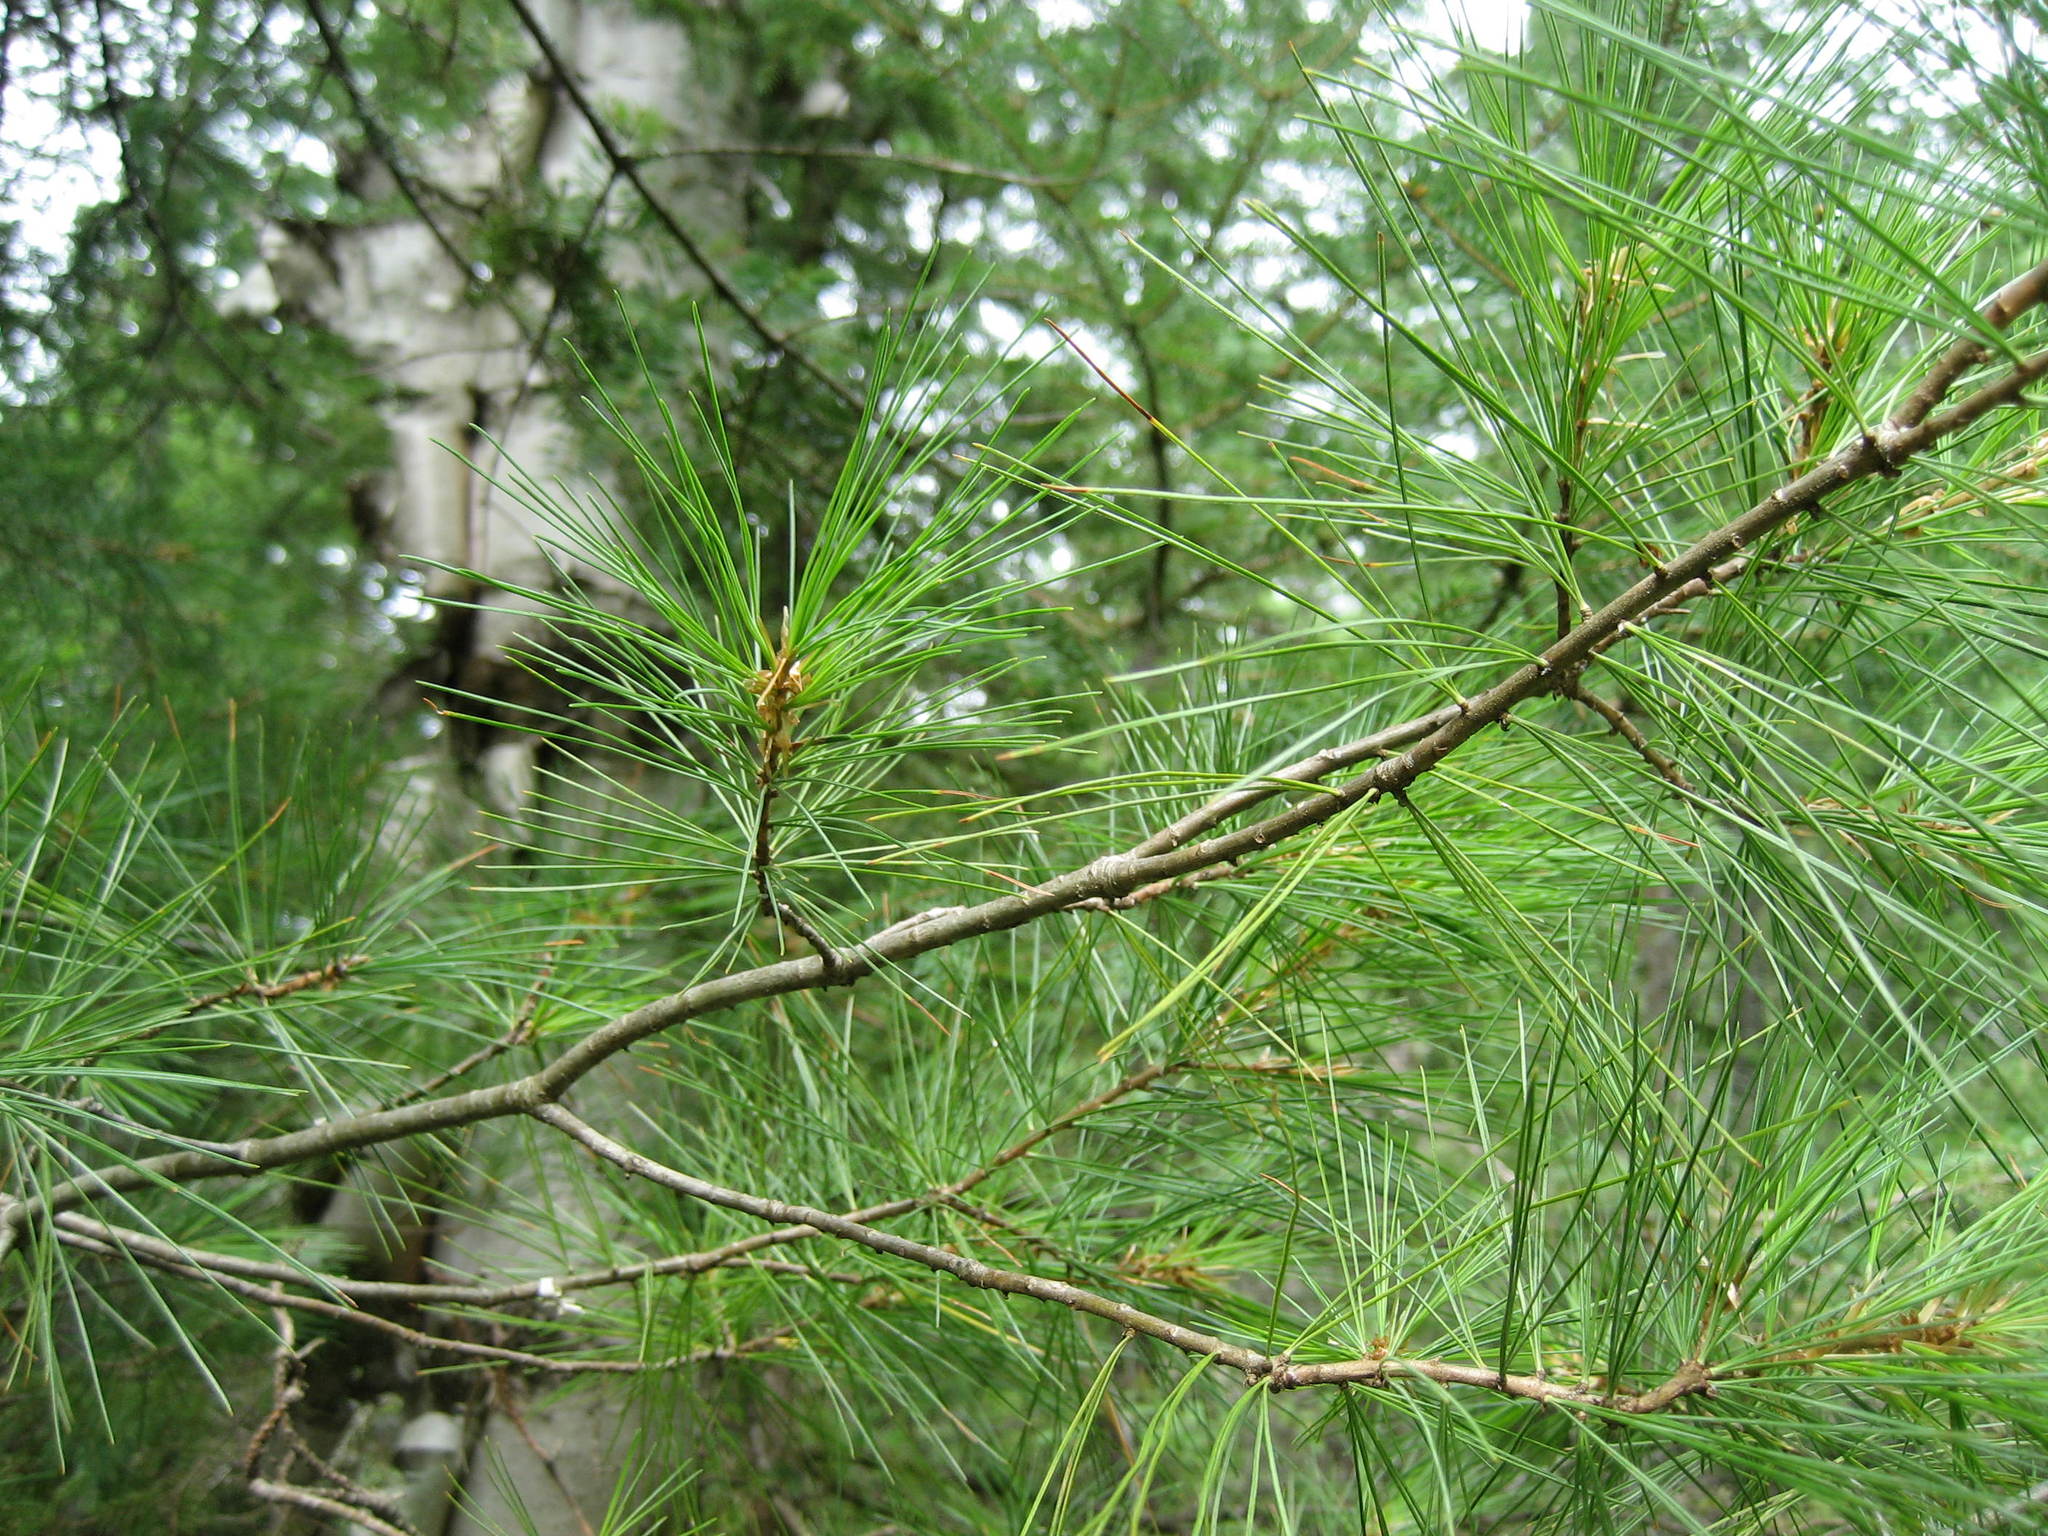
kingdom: Plantae
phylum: Tracheophyta
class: Pinopsida
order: Pinales
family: Pinaceae
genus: Pinus
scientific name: Pinus strobus
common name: Weymouth pine
